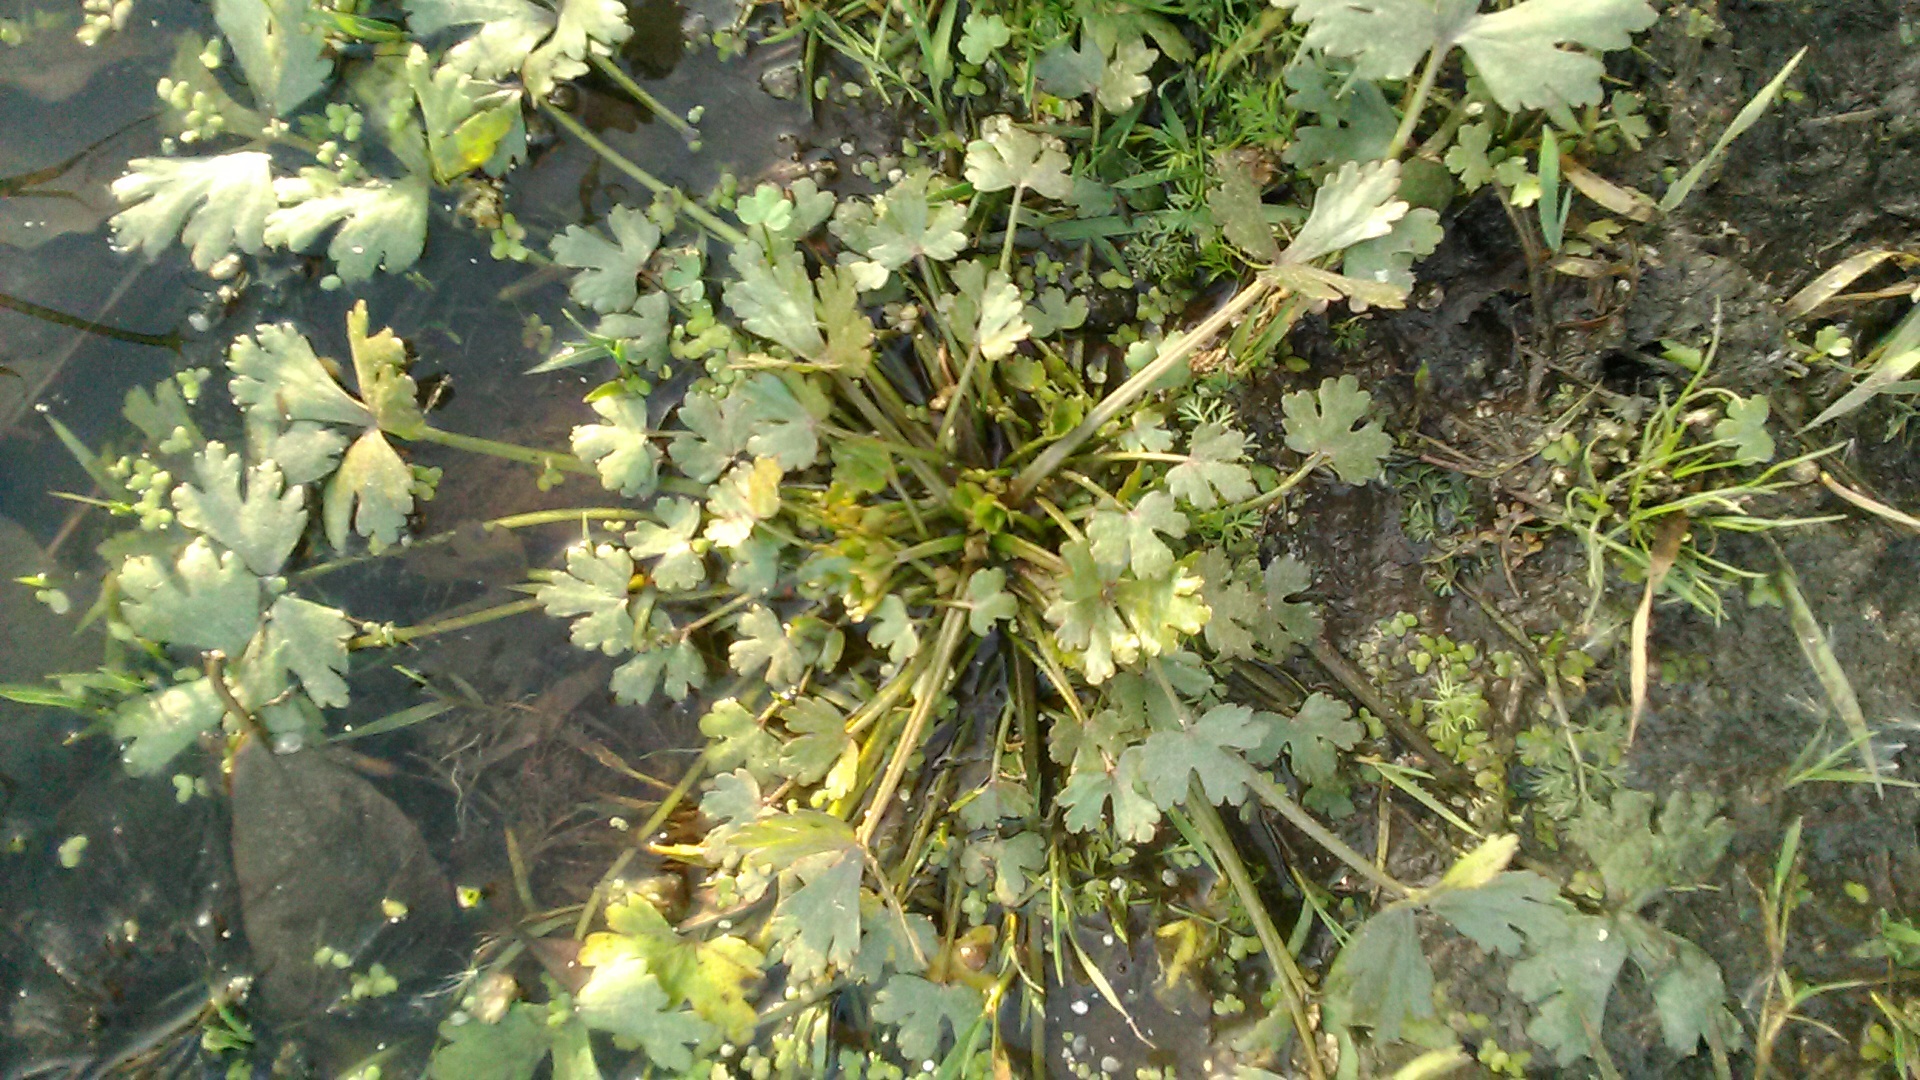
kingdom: Plantae
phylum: Tracheophyta
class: Magnoliopsida
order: Ranunculales
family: Ranunculaceae
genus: Ranunculus
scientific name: Ranunculus sceleratus
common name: Celery-leaved buttercup
